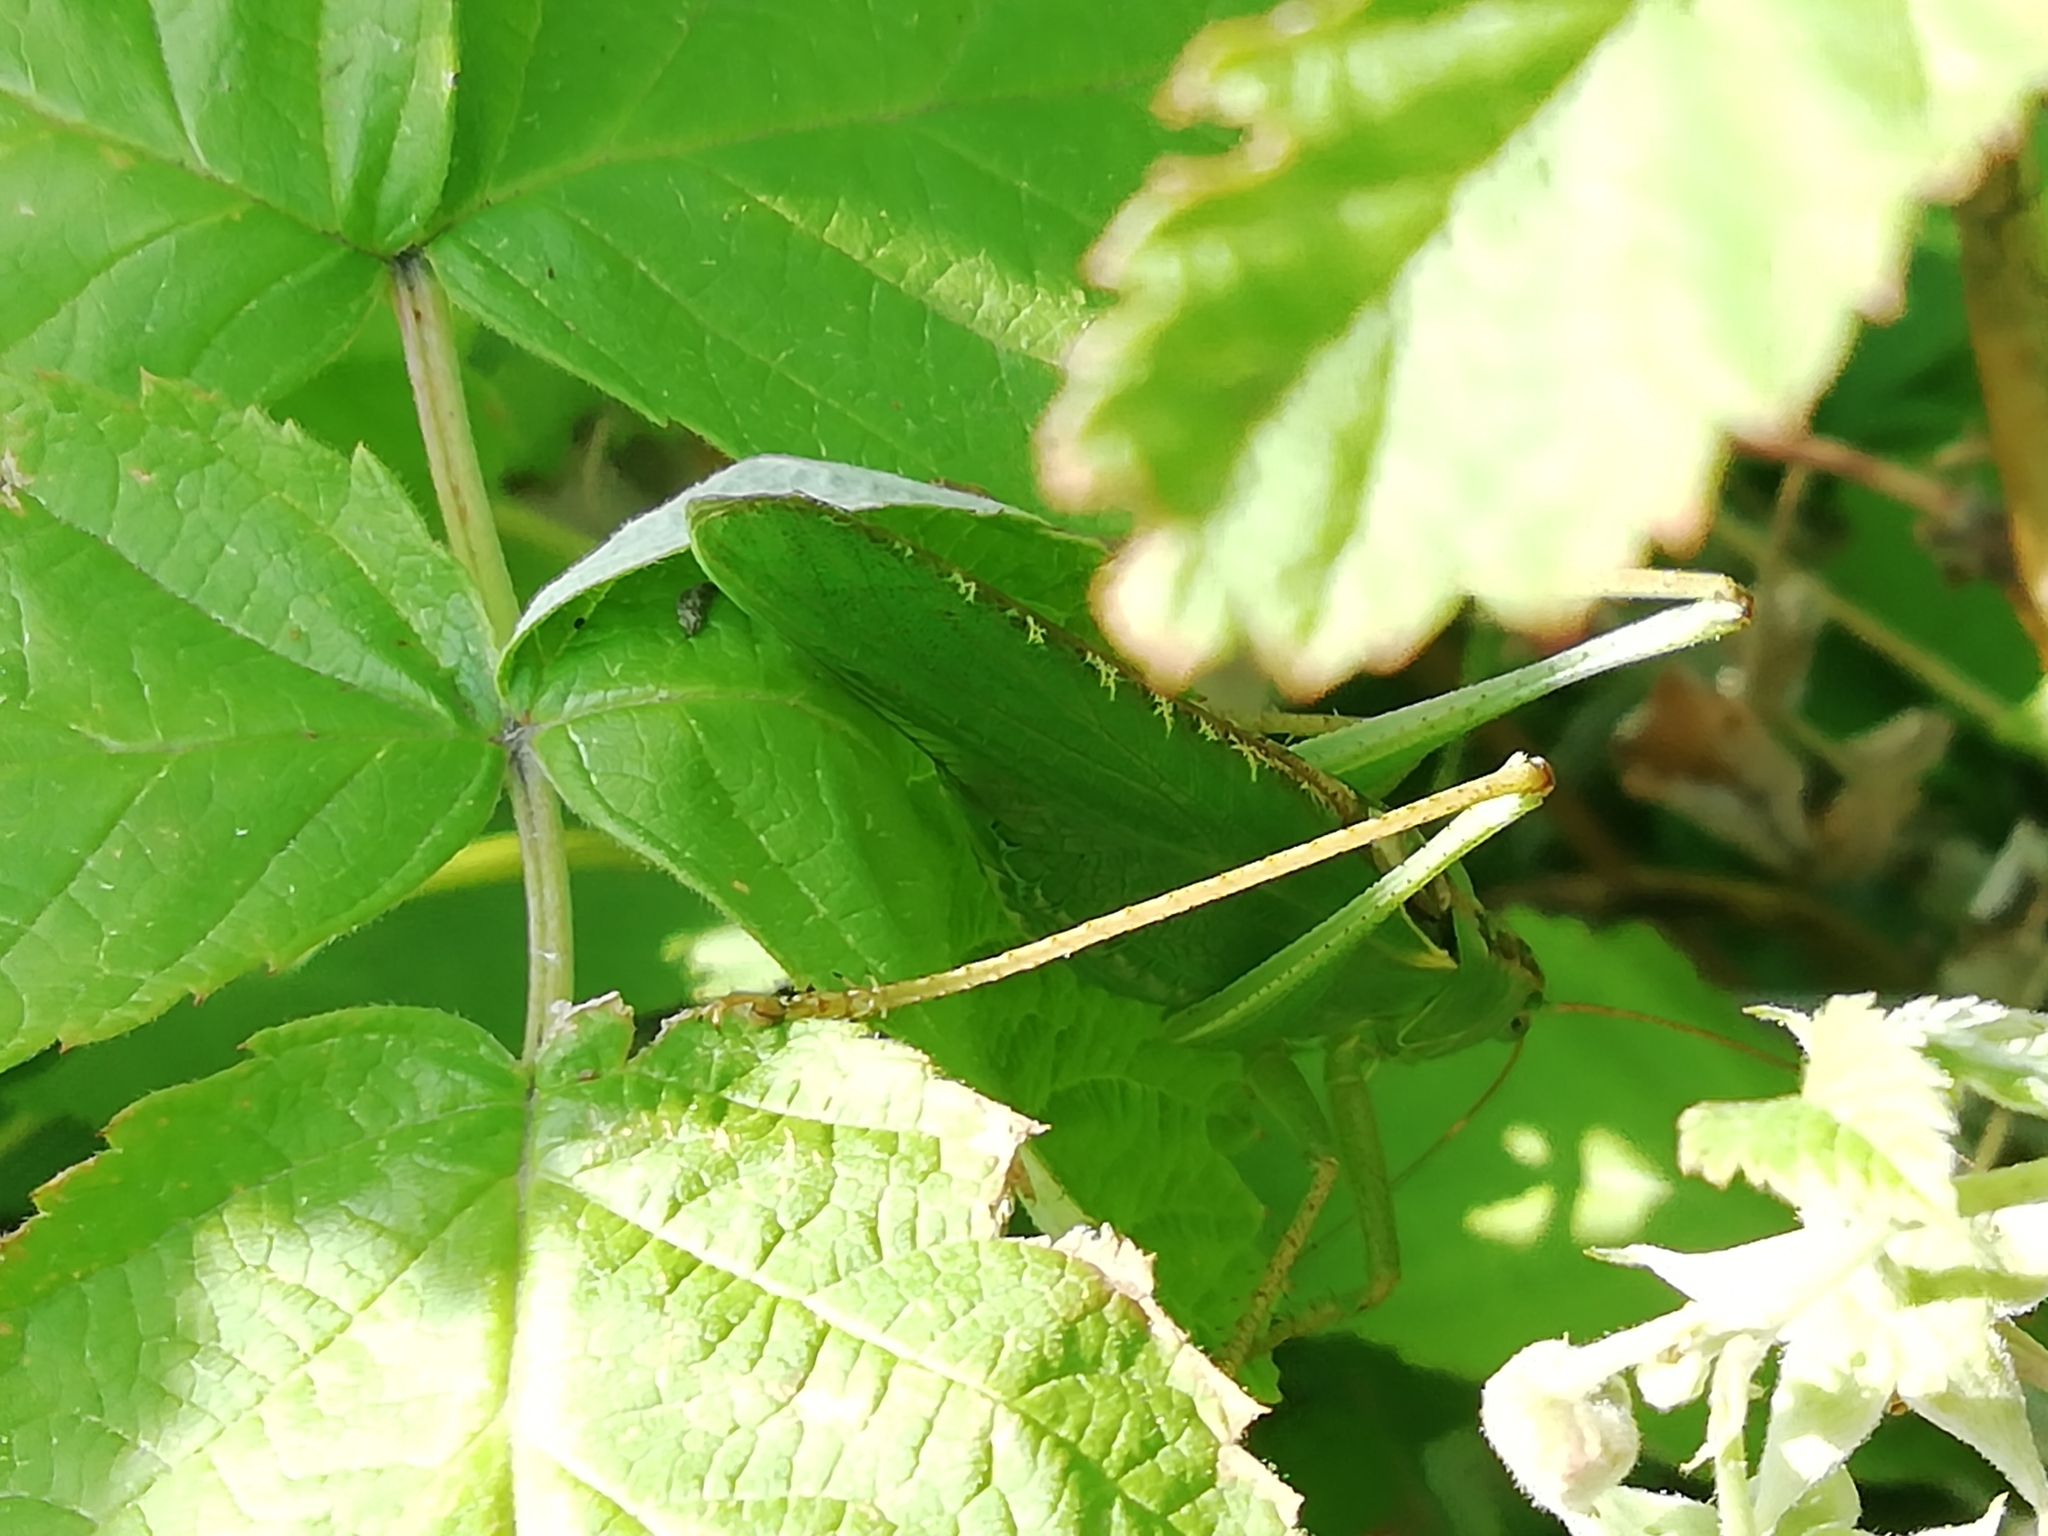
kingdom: Animalia
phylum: Arthropoda
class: Insecta
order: Orthoptera
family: Tettigoniidae
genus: Tettigonia
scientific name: Tettigonia viridissima
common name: Great green bush-cricket
